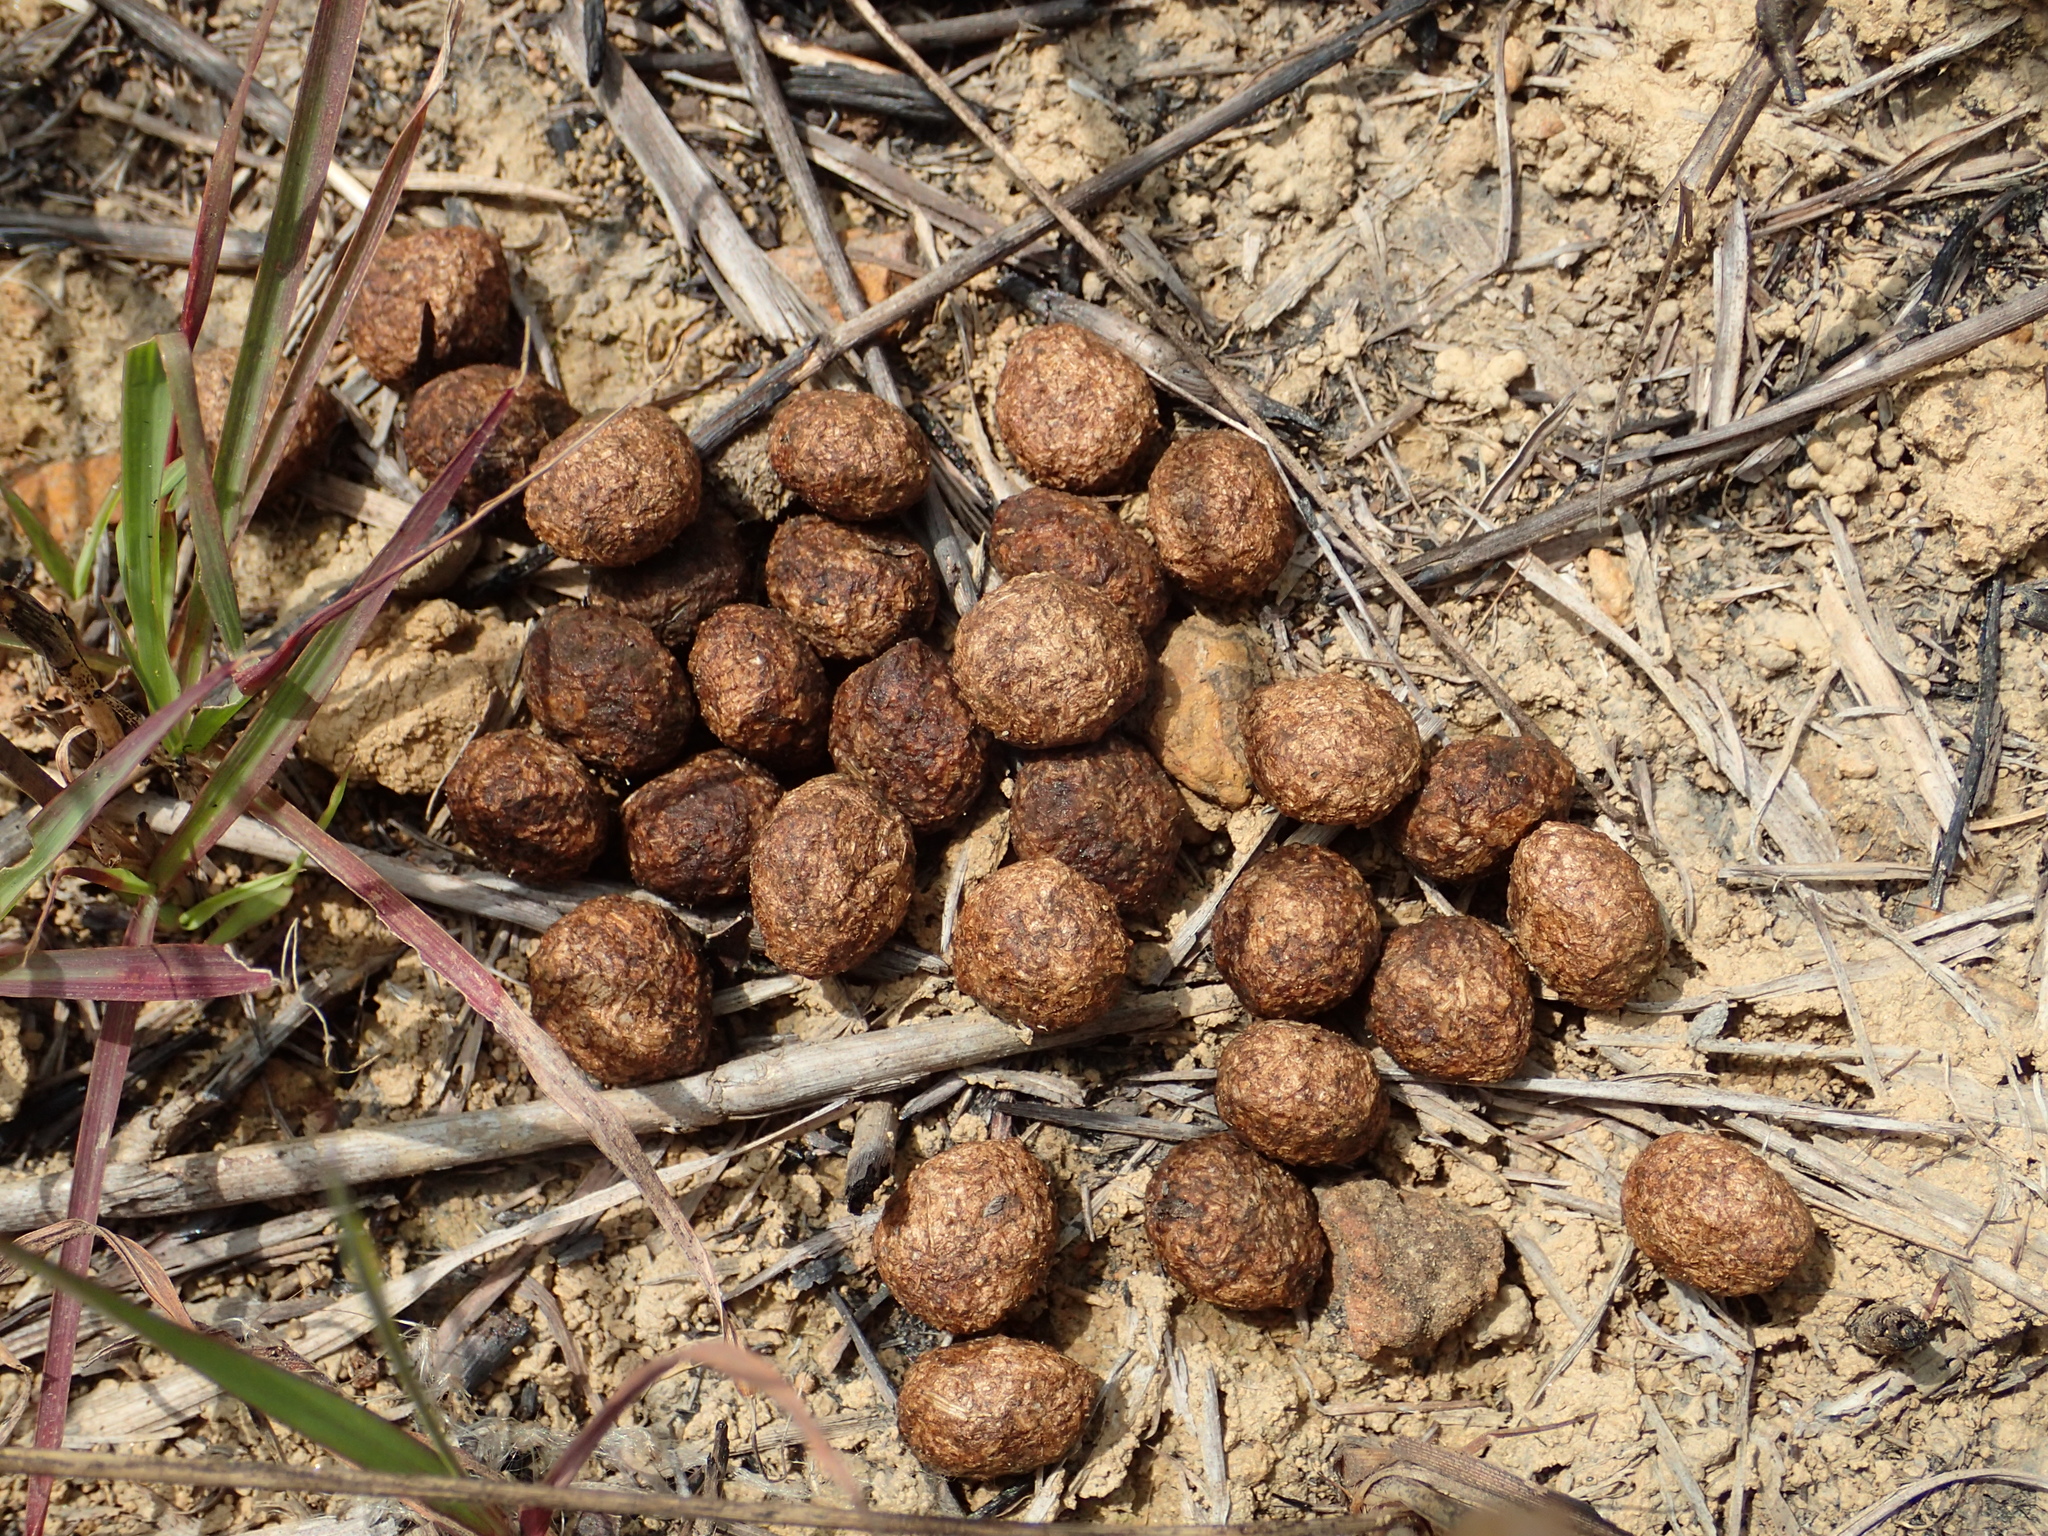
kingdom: Animalia
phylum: Chordata
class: Mammalia
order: Lagomorpha
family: Leporidae
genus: Lepus
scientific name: Lepus sinensis
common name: Chinese hare
